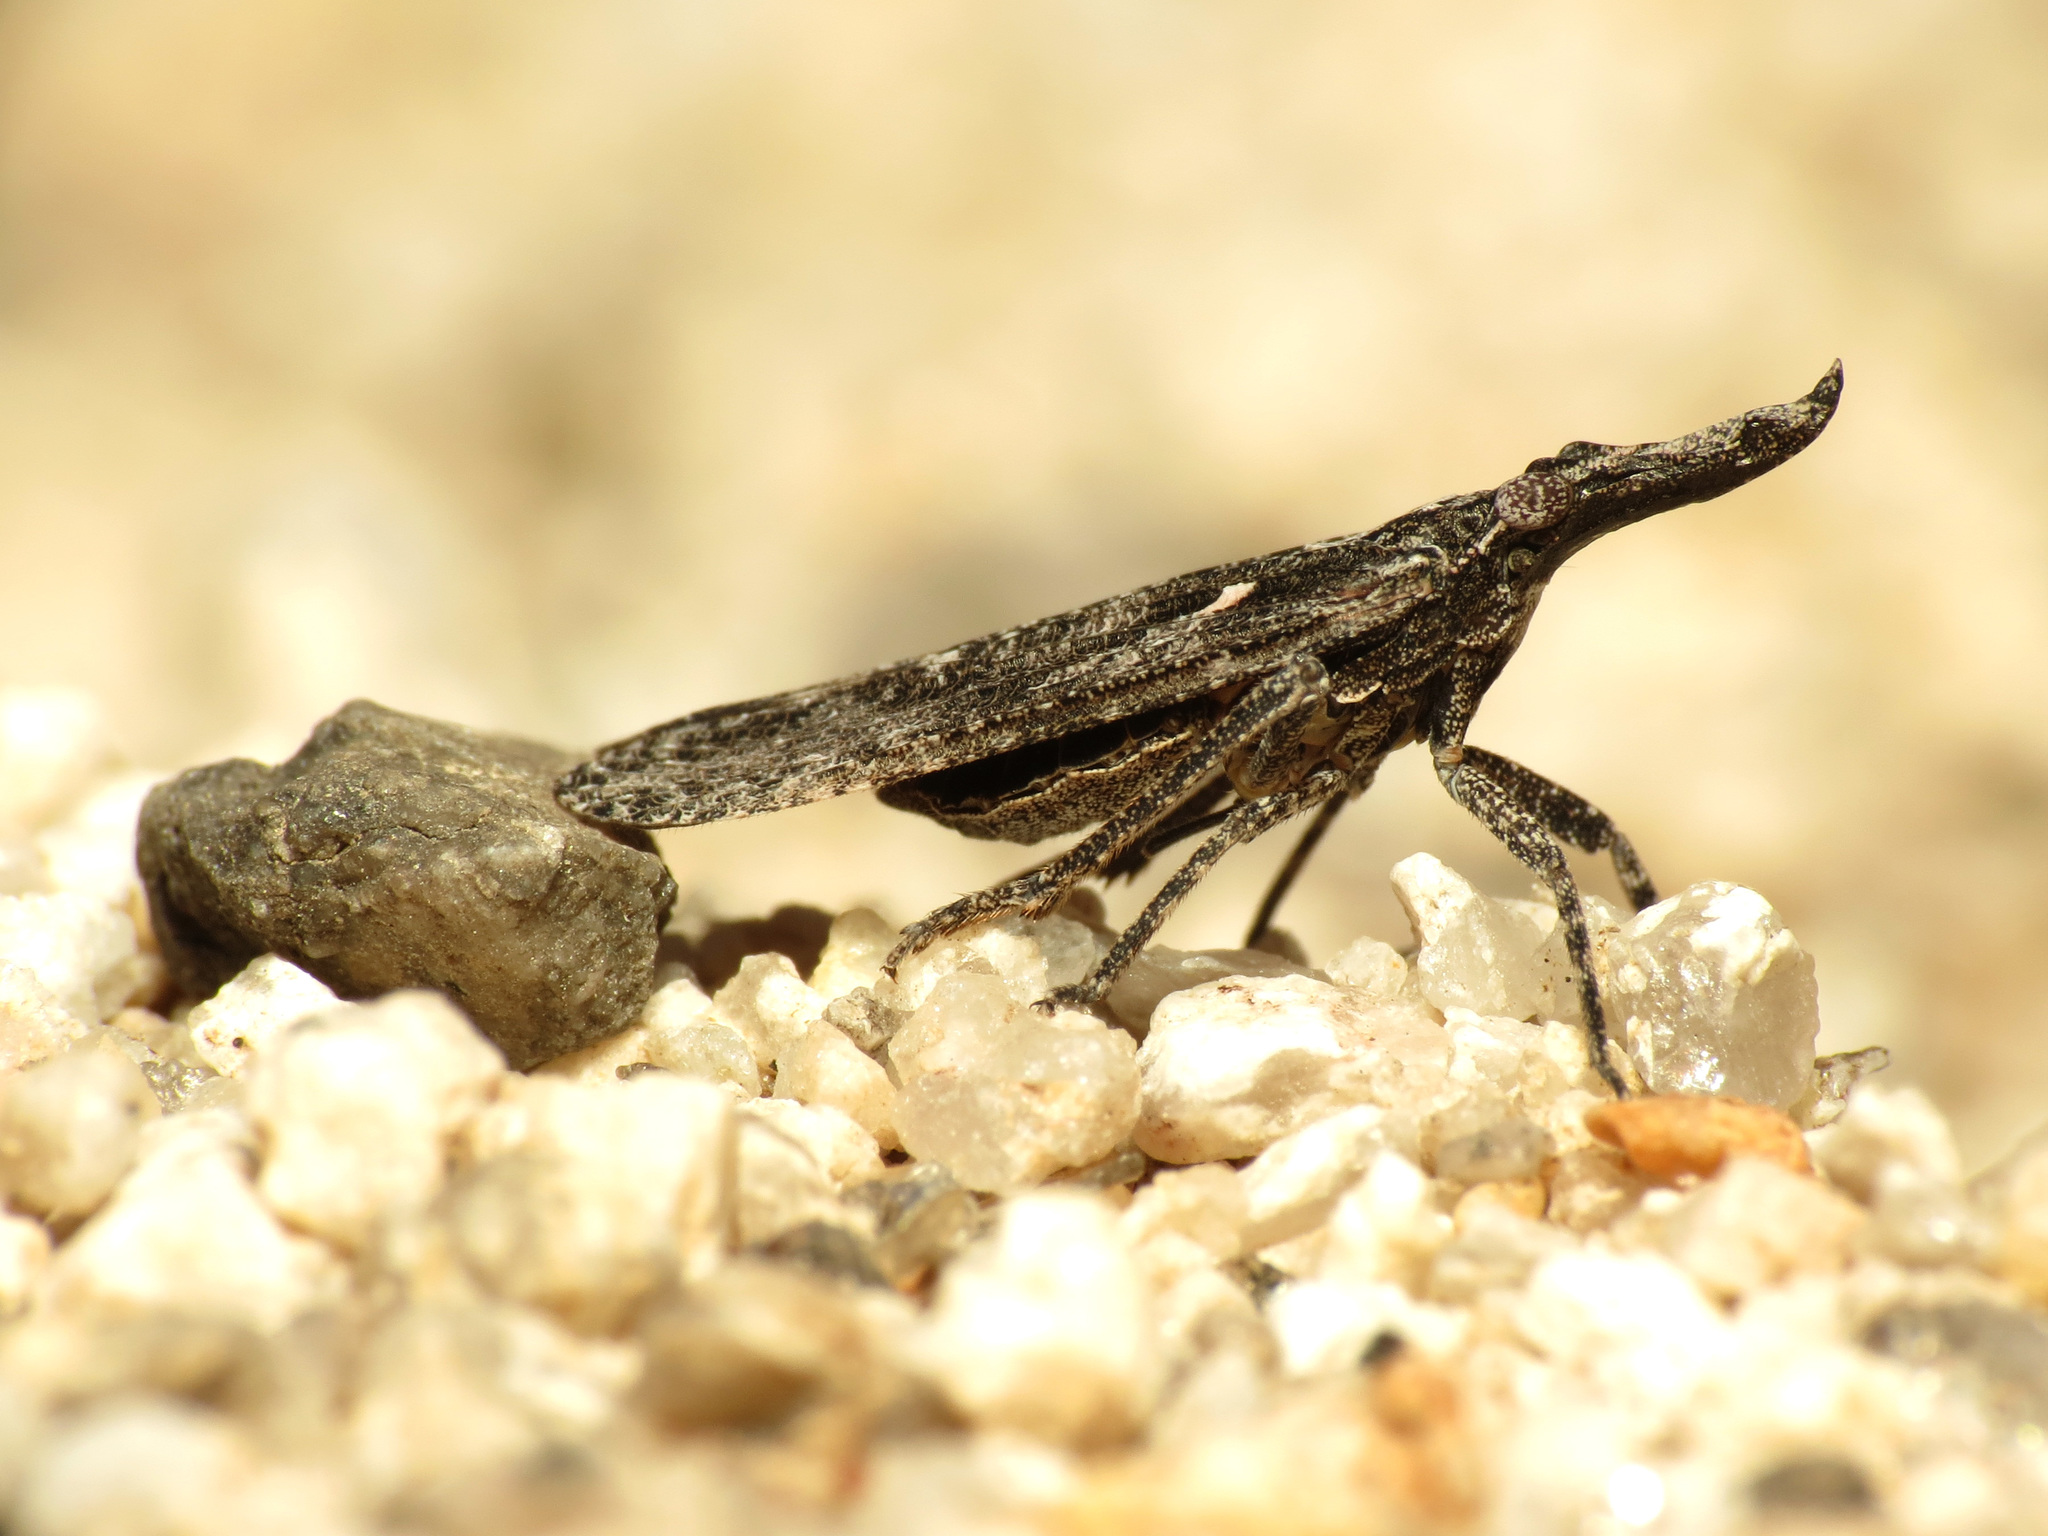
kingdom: Animalia
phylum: Arthropoda
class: Insecta
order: Hemiptera
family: Fulgoridae
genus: Amycle
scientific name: Amycle tumacacorae
